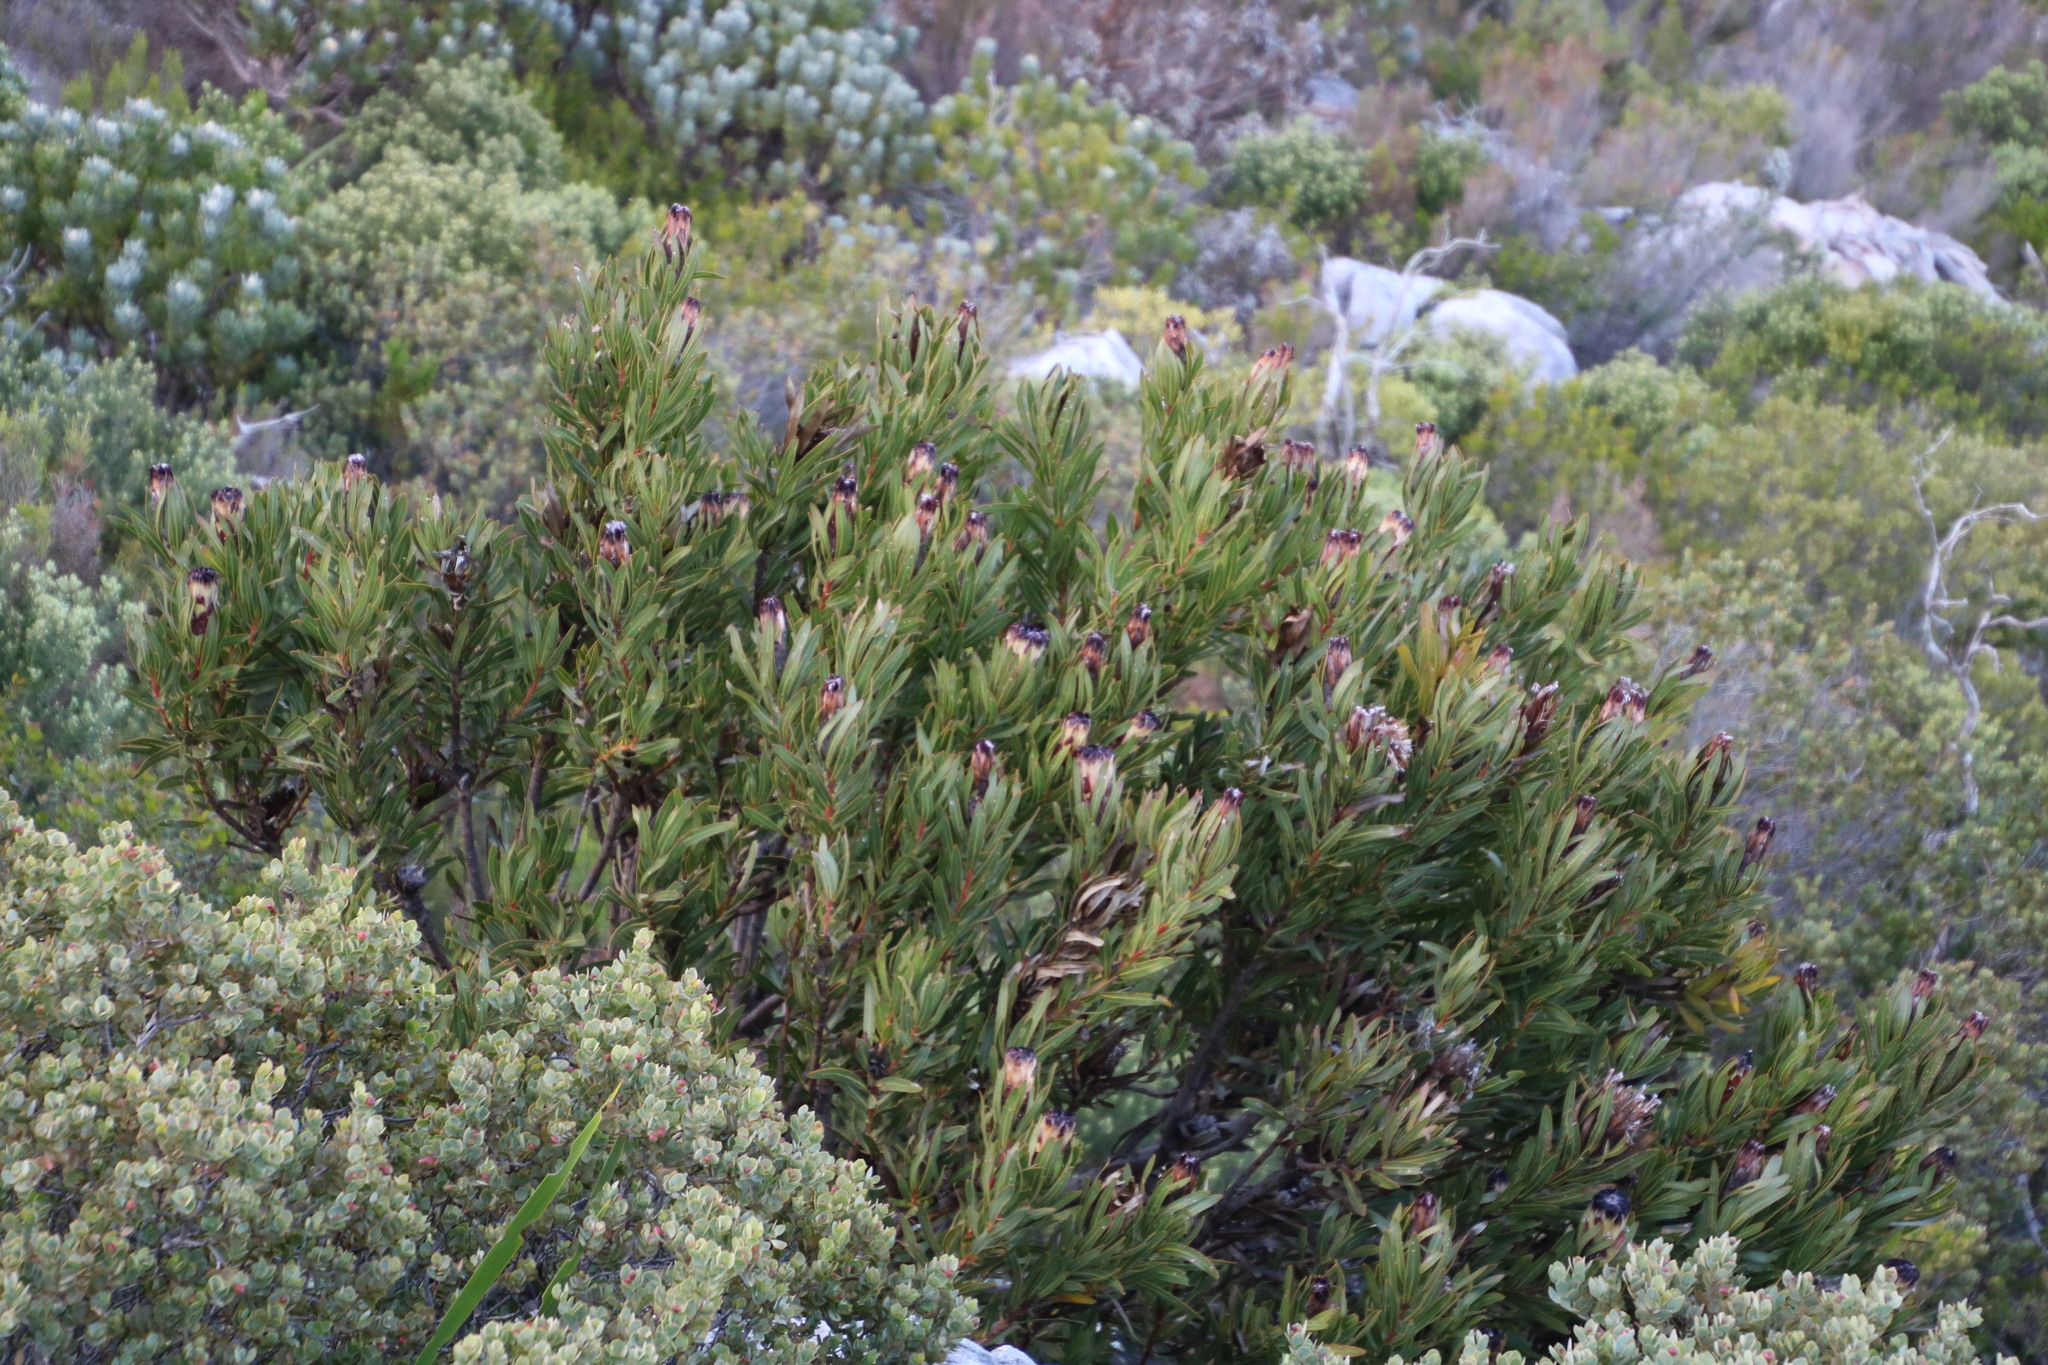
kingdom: Plantae
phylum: Tracheophyta
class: Magnoliopsida
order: Proteales
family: Proteaceae
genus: Protea
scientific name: Protea lepidocarpodendron
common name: Black-bearded protea
